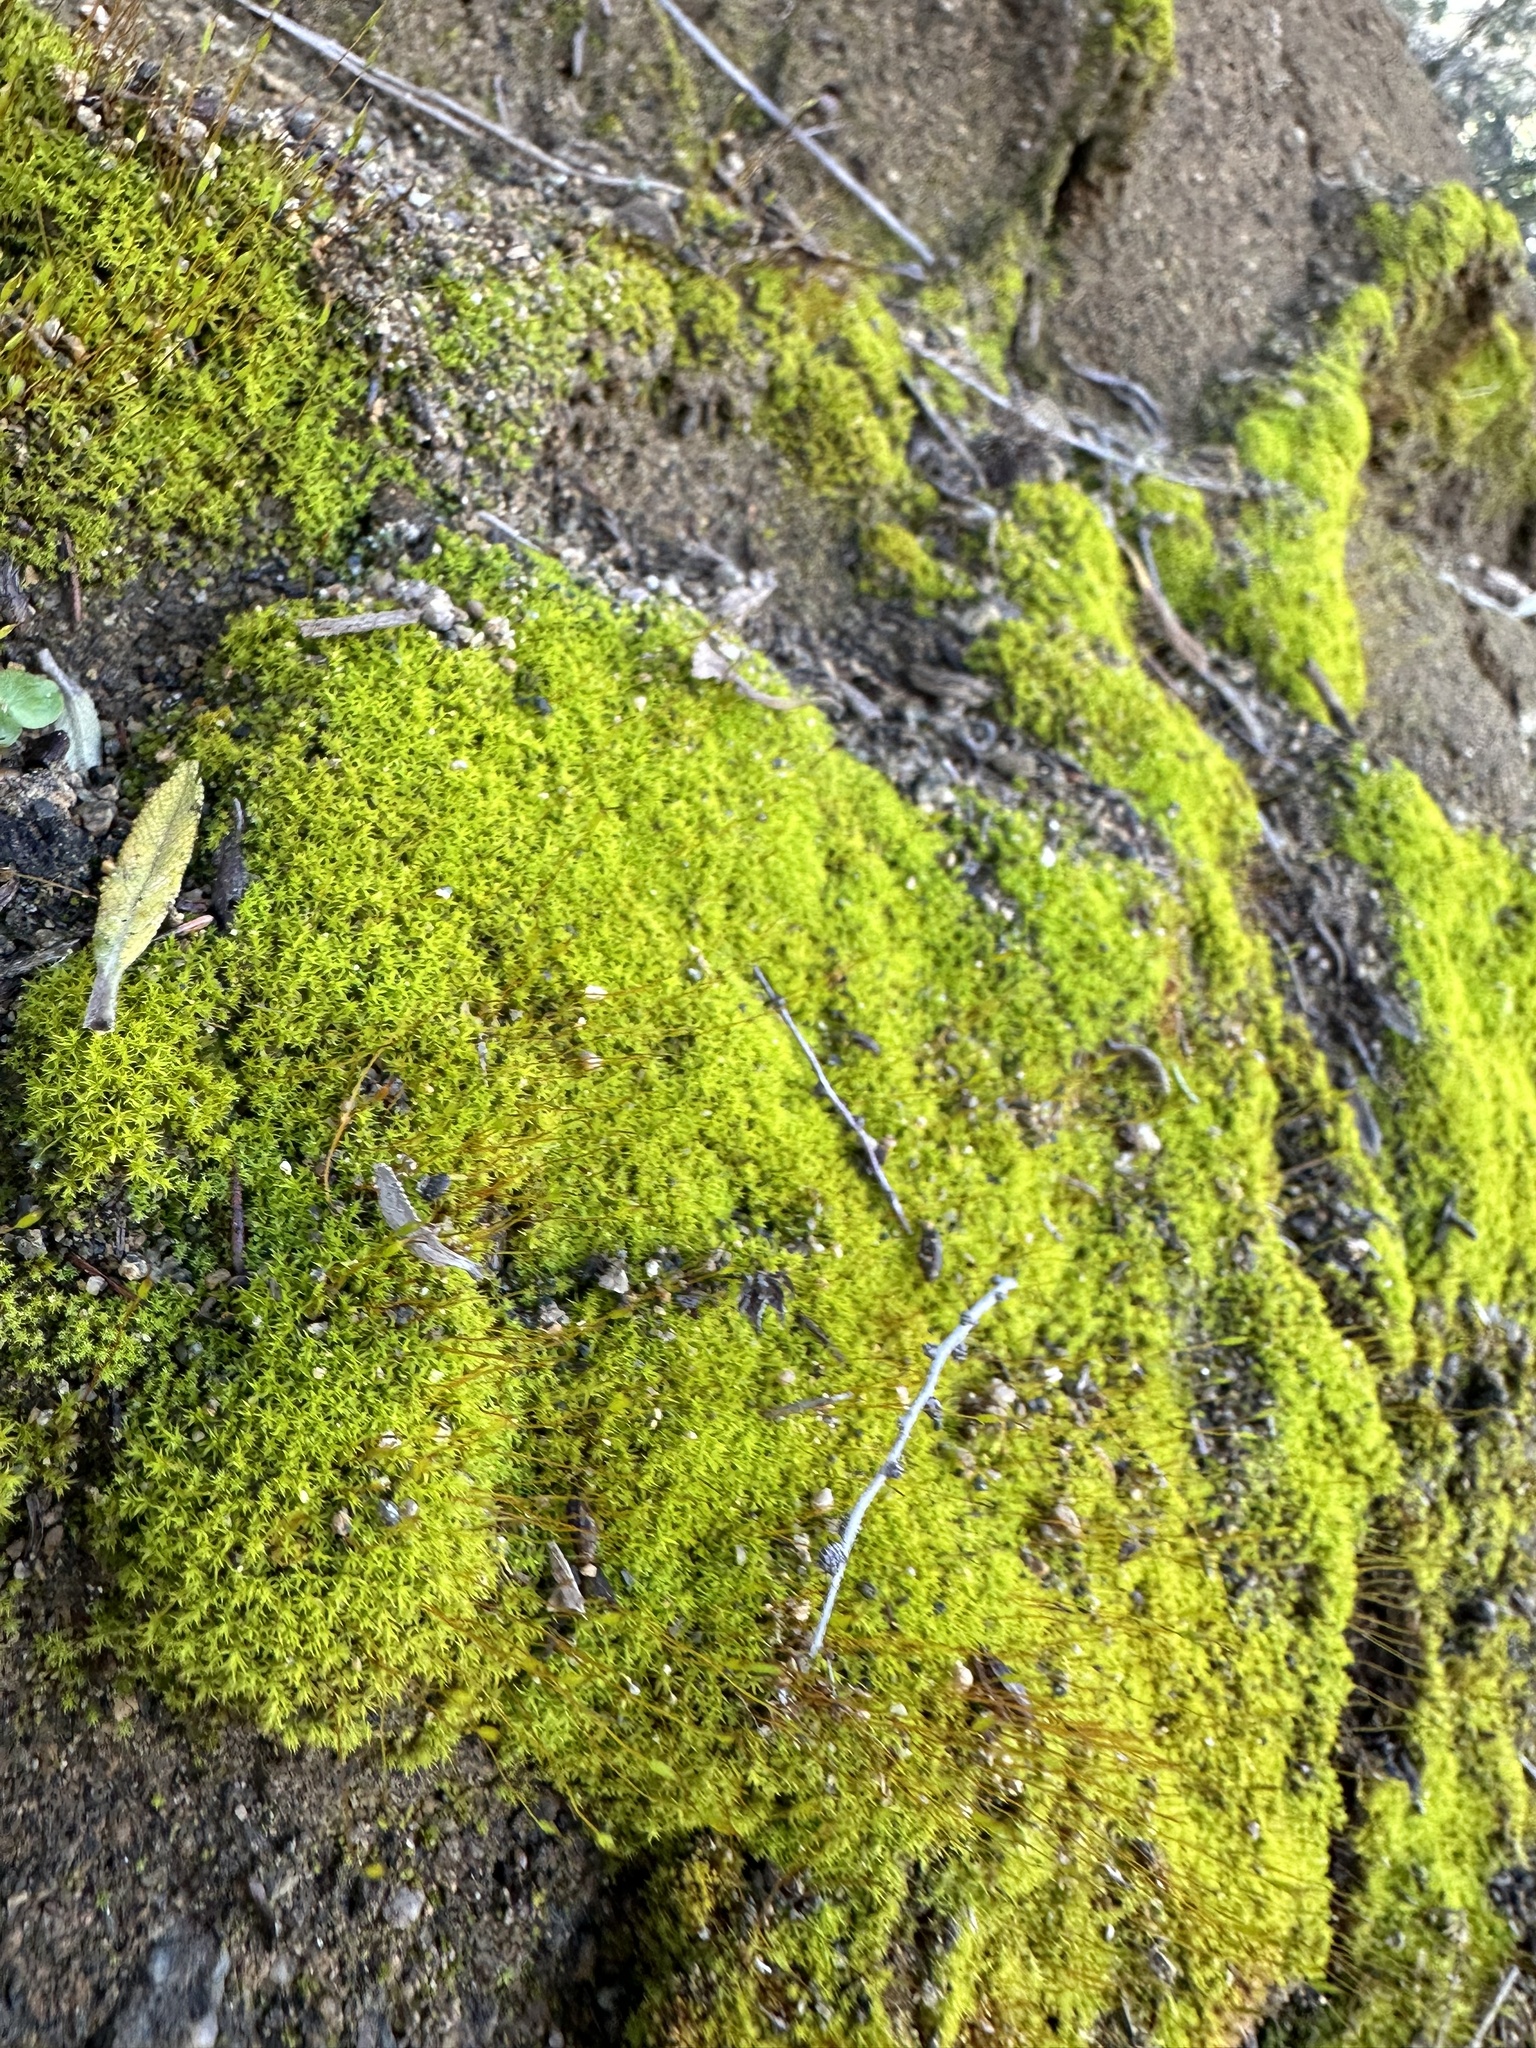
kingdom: Plantae
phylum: Bryophyta
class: Bryopsida
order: Pottiales
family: Pottiaceae
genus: Tortula
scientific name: Tortula muralis
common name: Wall screw-moss
